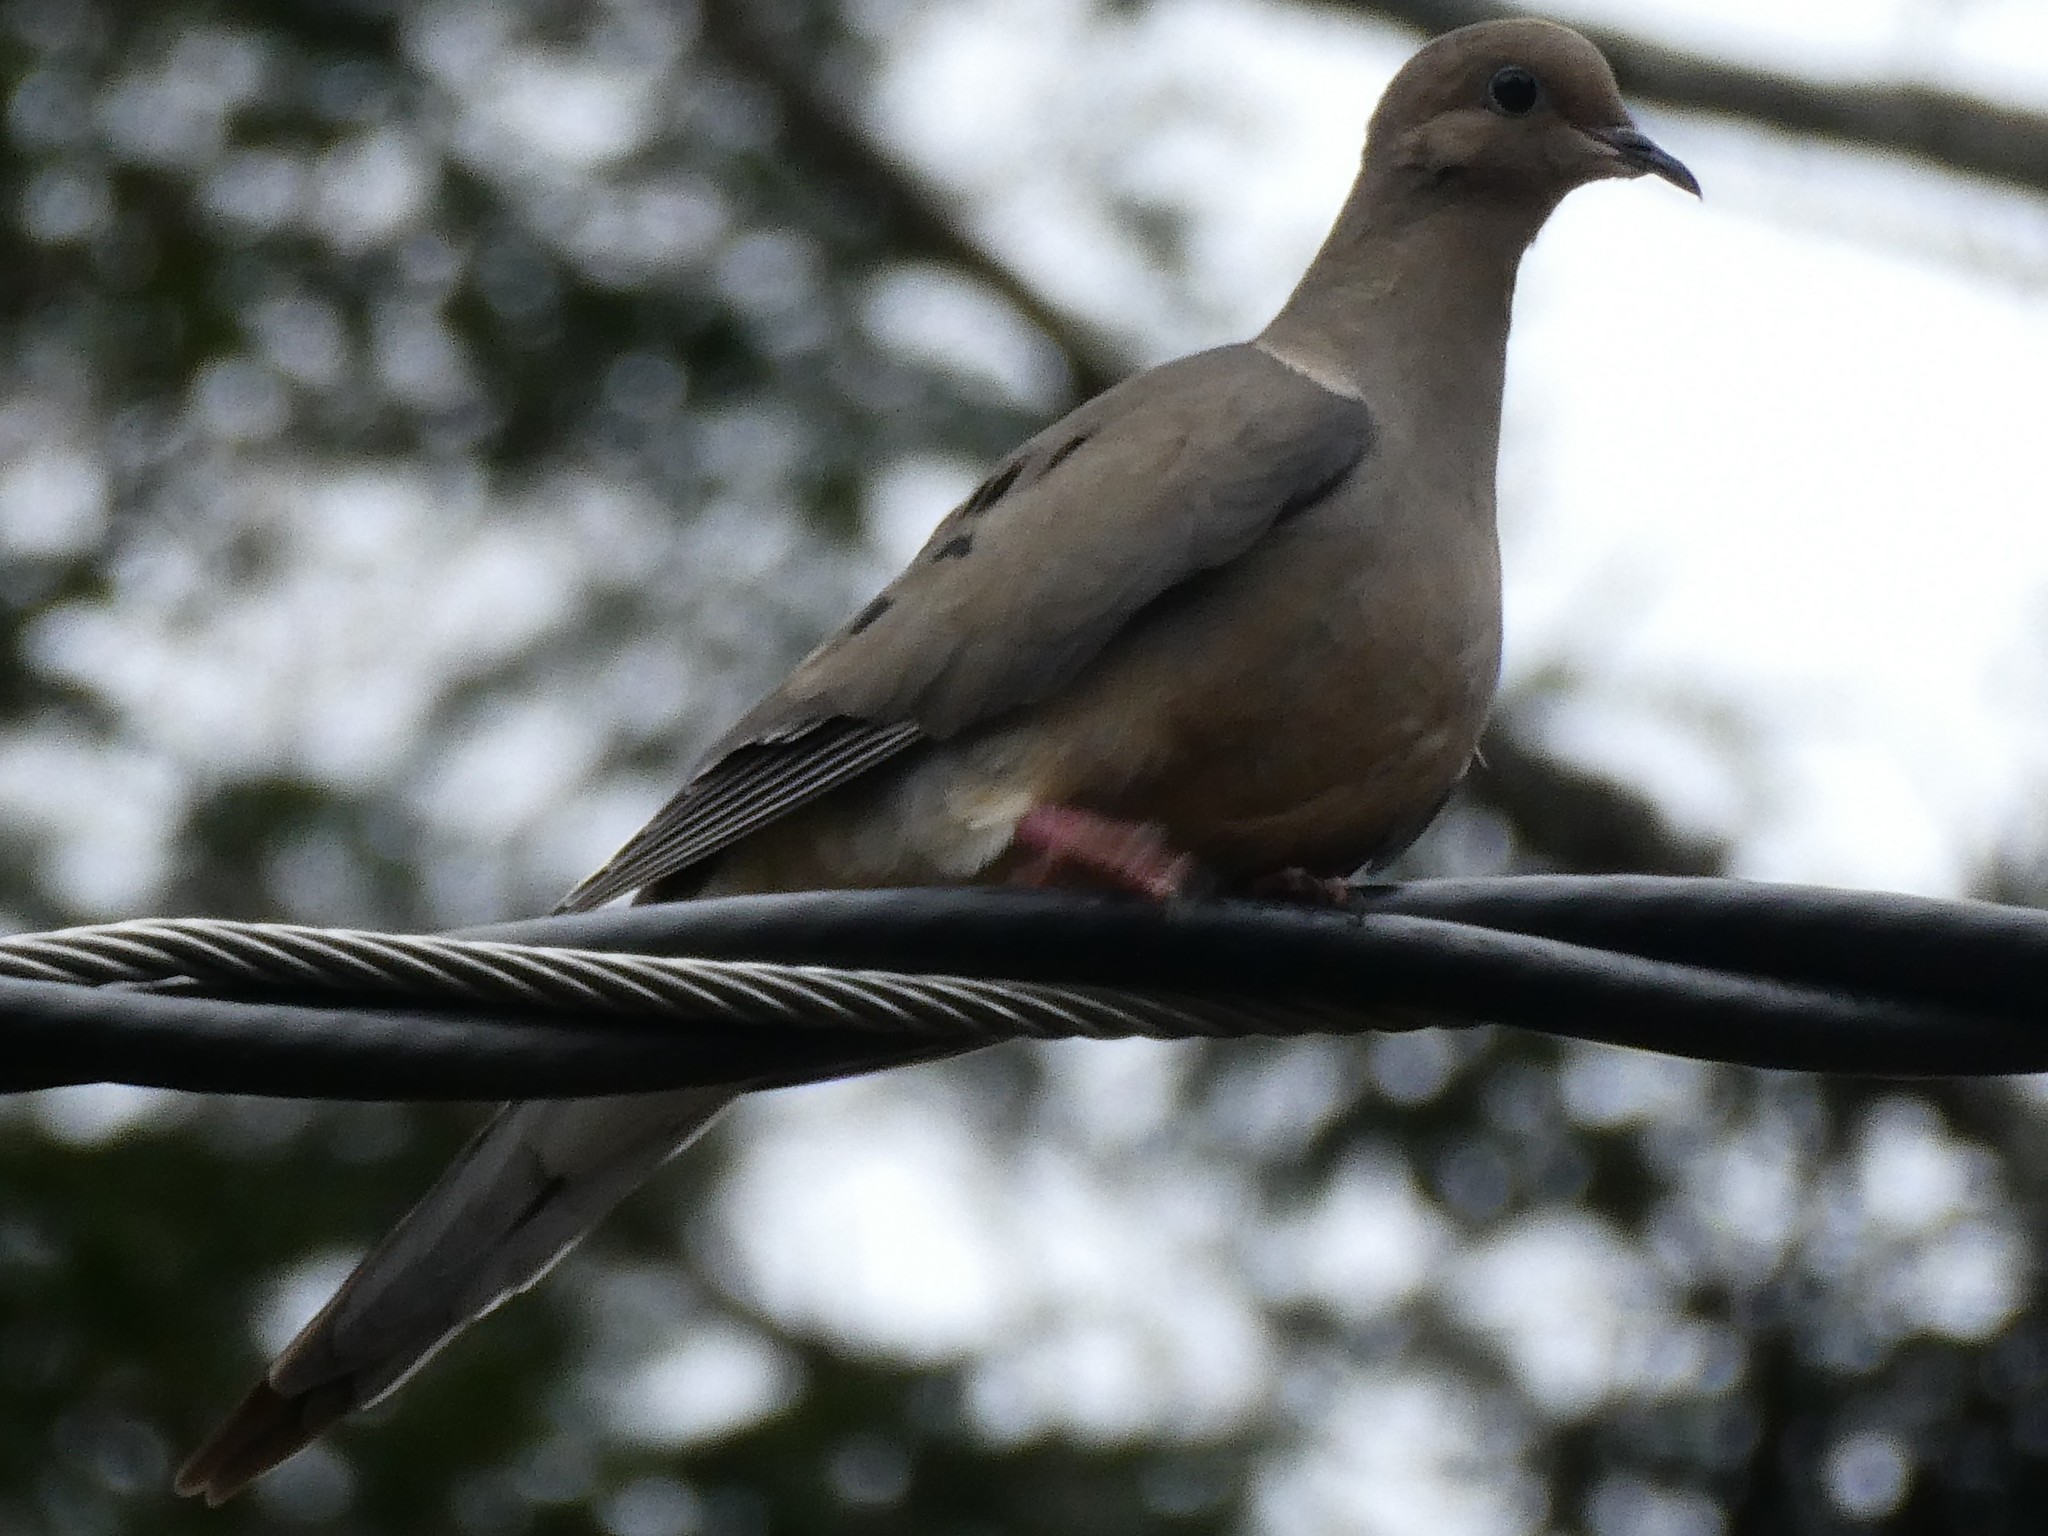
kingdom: Animalia
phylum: Chordata
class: Aves
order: Columbiformes
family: Columbidae
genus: Zenaida
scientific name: Zenaida macroura
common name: Mourning dove
